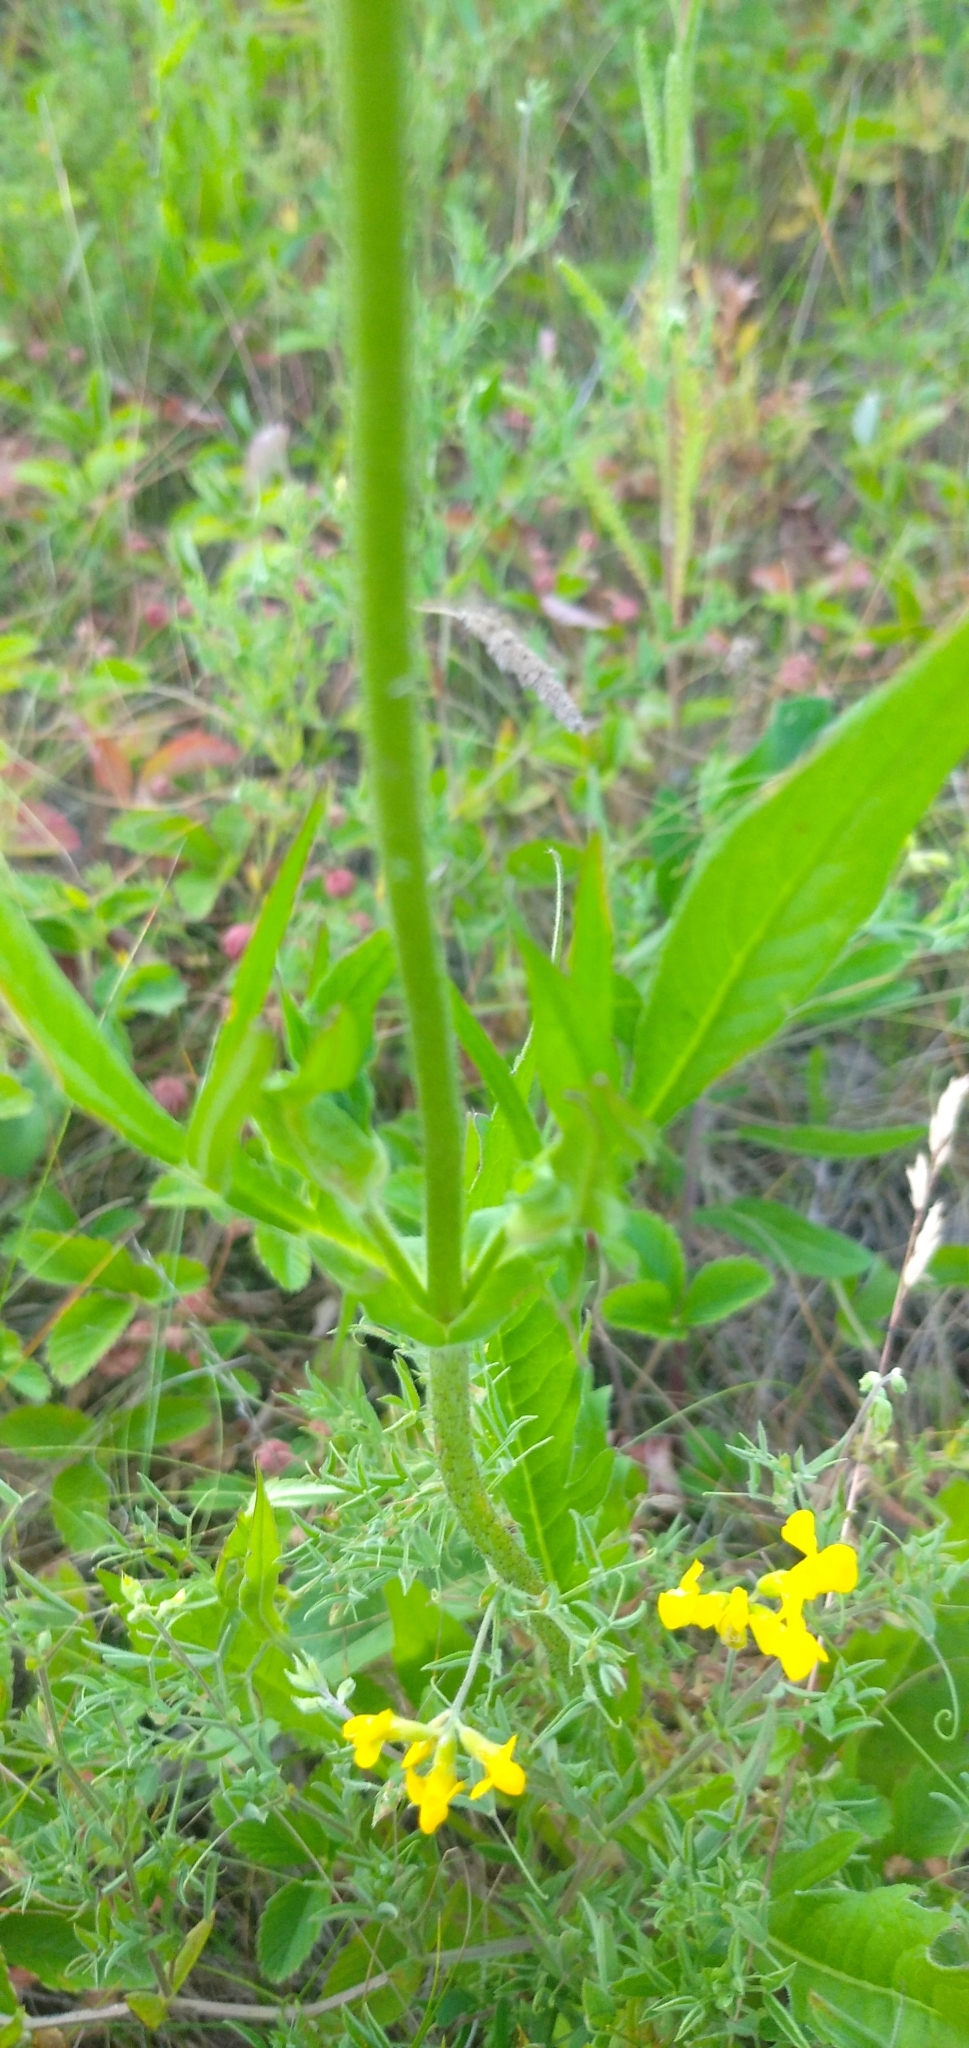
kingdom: Plantae
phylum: Tracheophyta
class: Magnoliopsida
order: Dipsacales
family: Caprifoliaceae
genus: Knautia
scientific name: Knautia arvensis
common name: Field scabiosa
